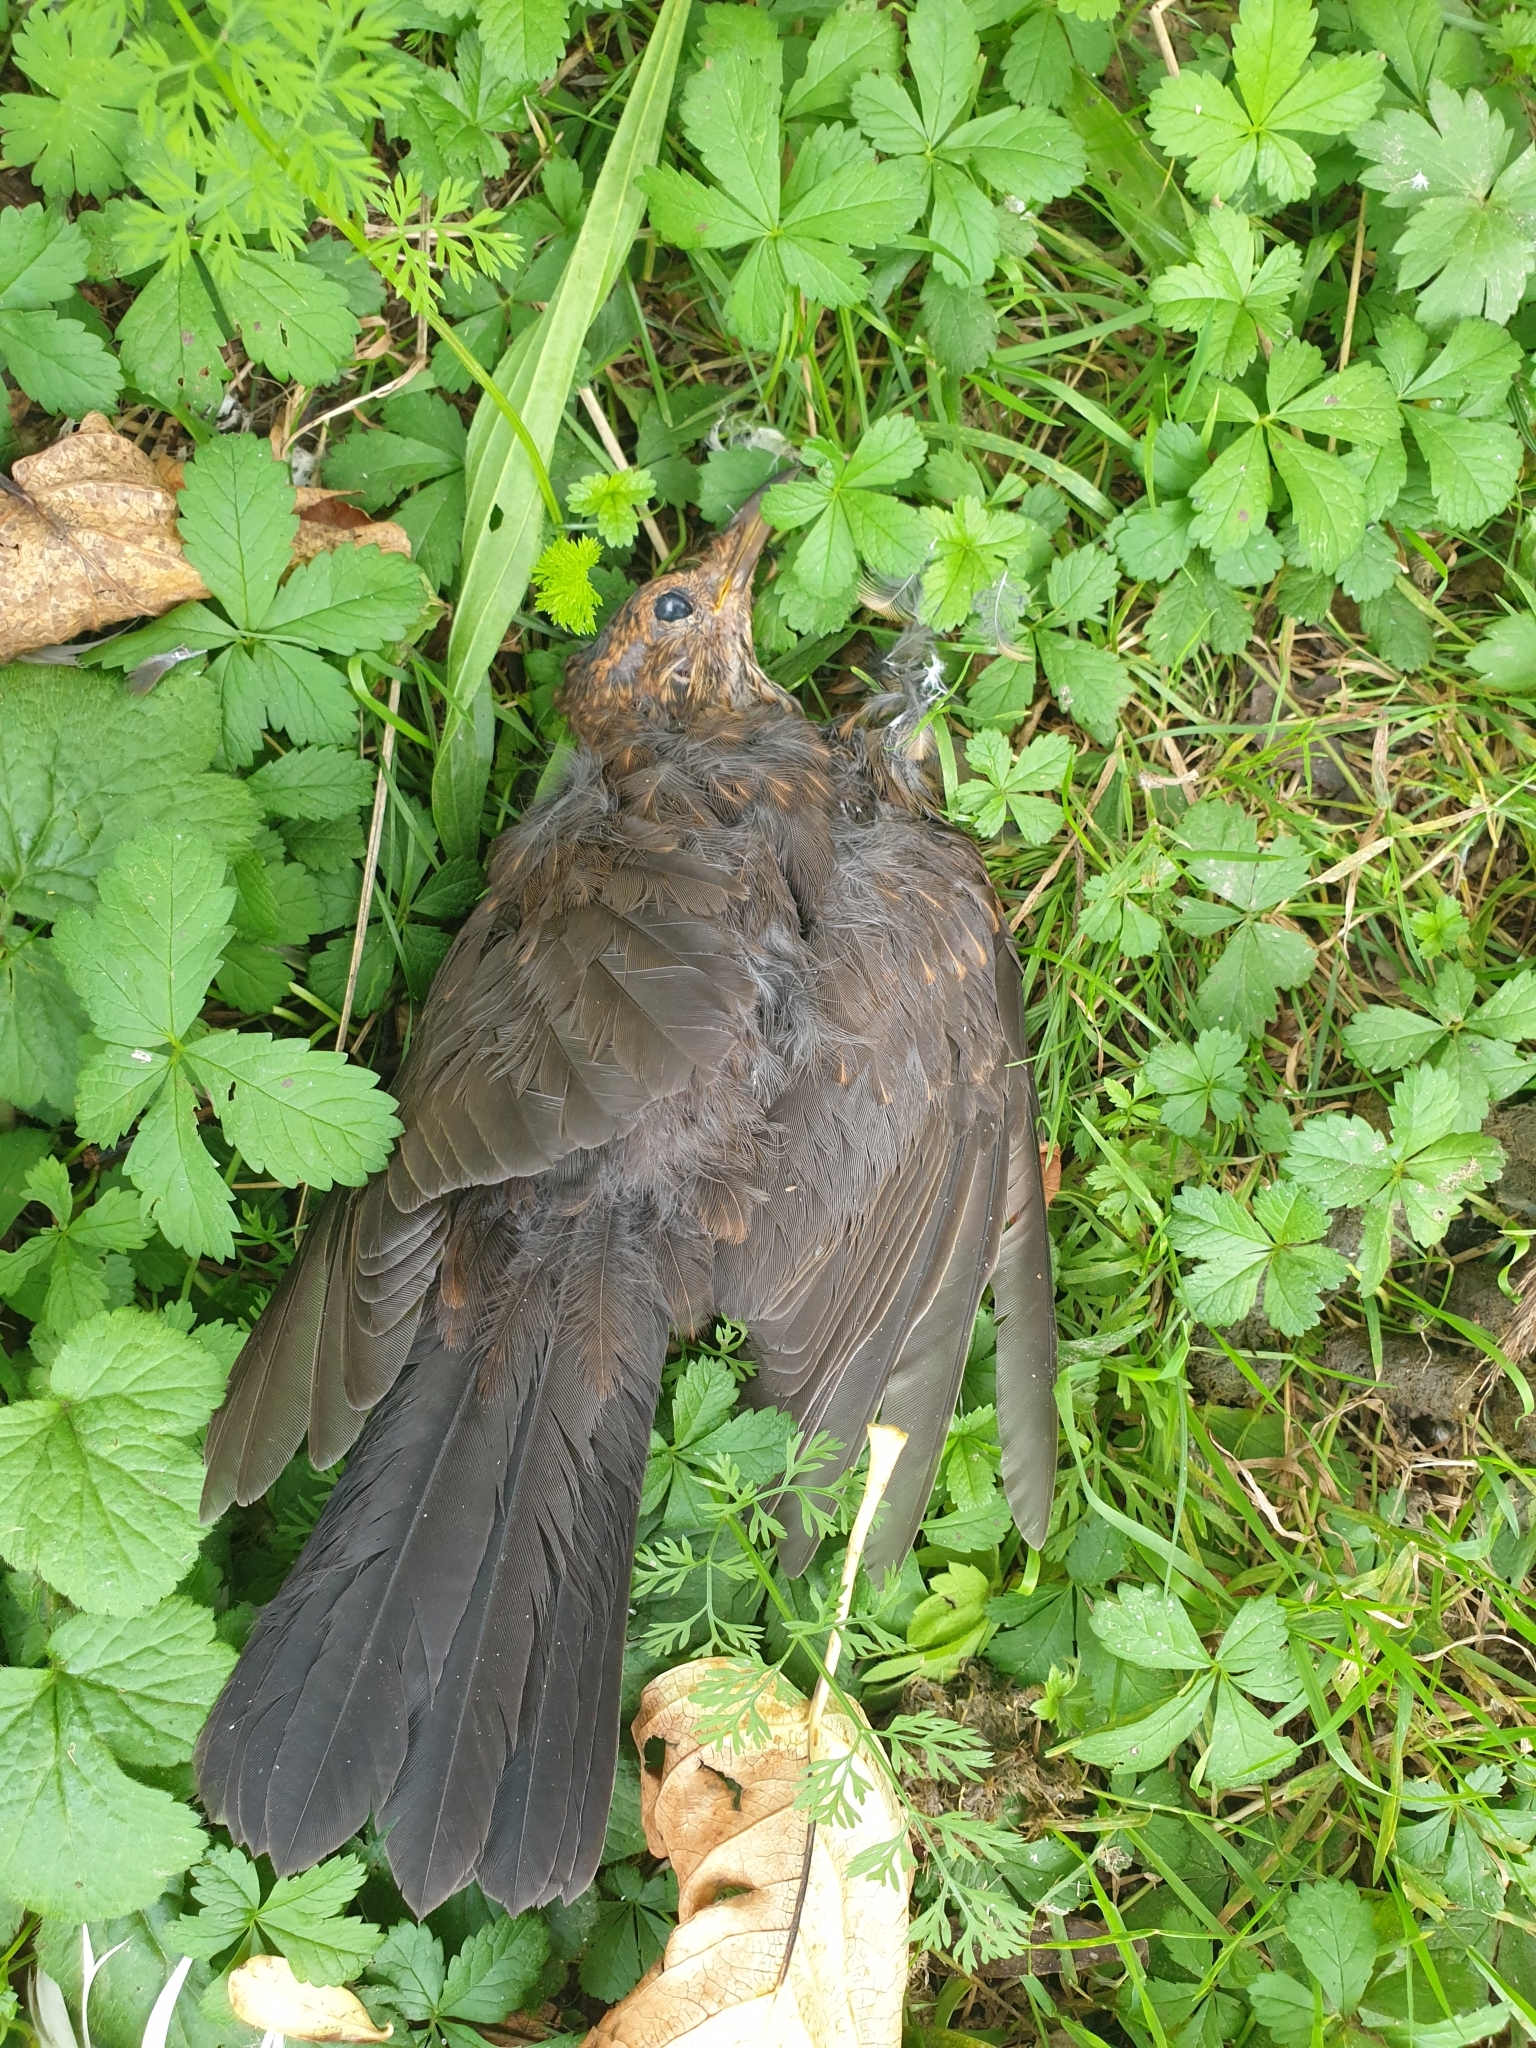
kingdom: Animalia
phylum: Chordata
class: Aves
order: Passeriformes
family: Turdidae
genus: Turdus
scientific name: Turdus merula
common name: Common blackbird
